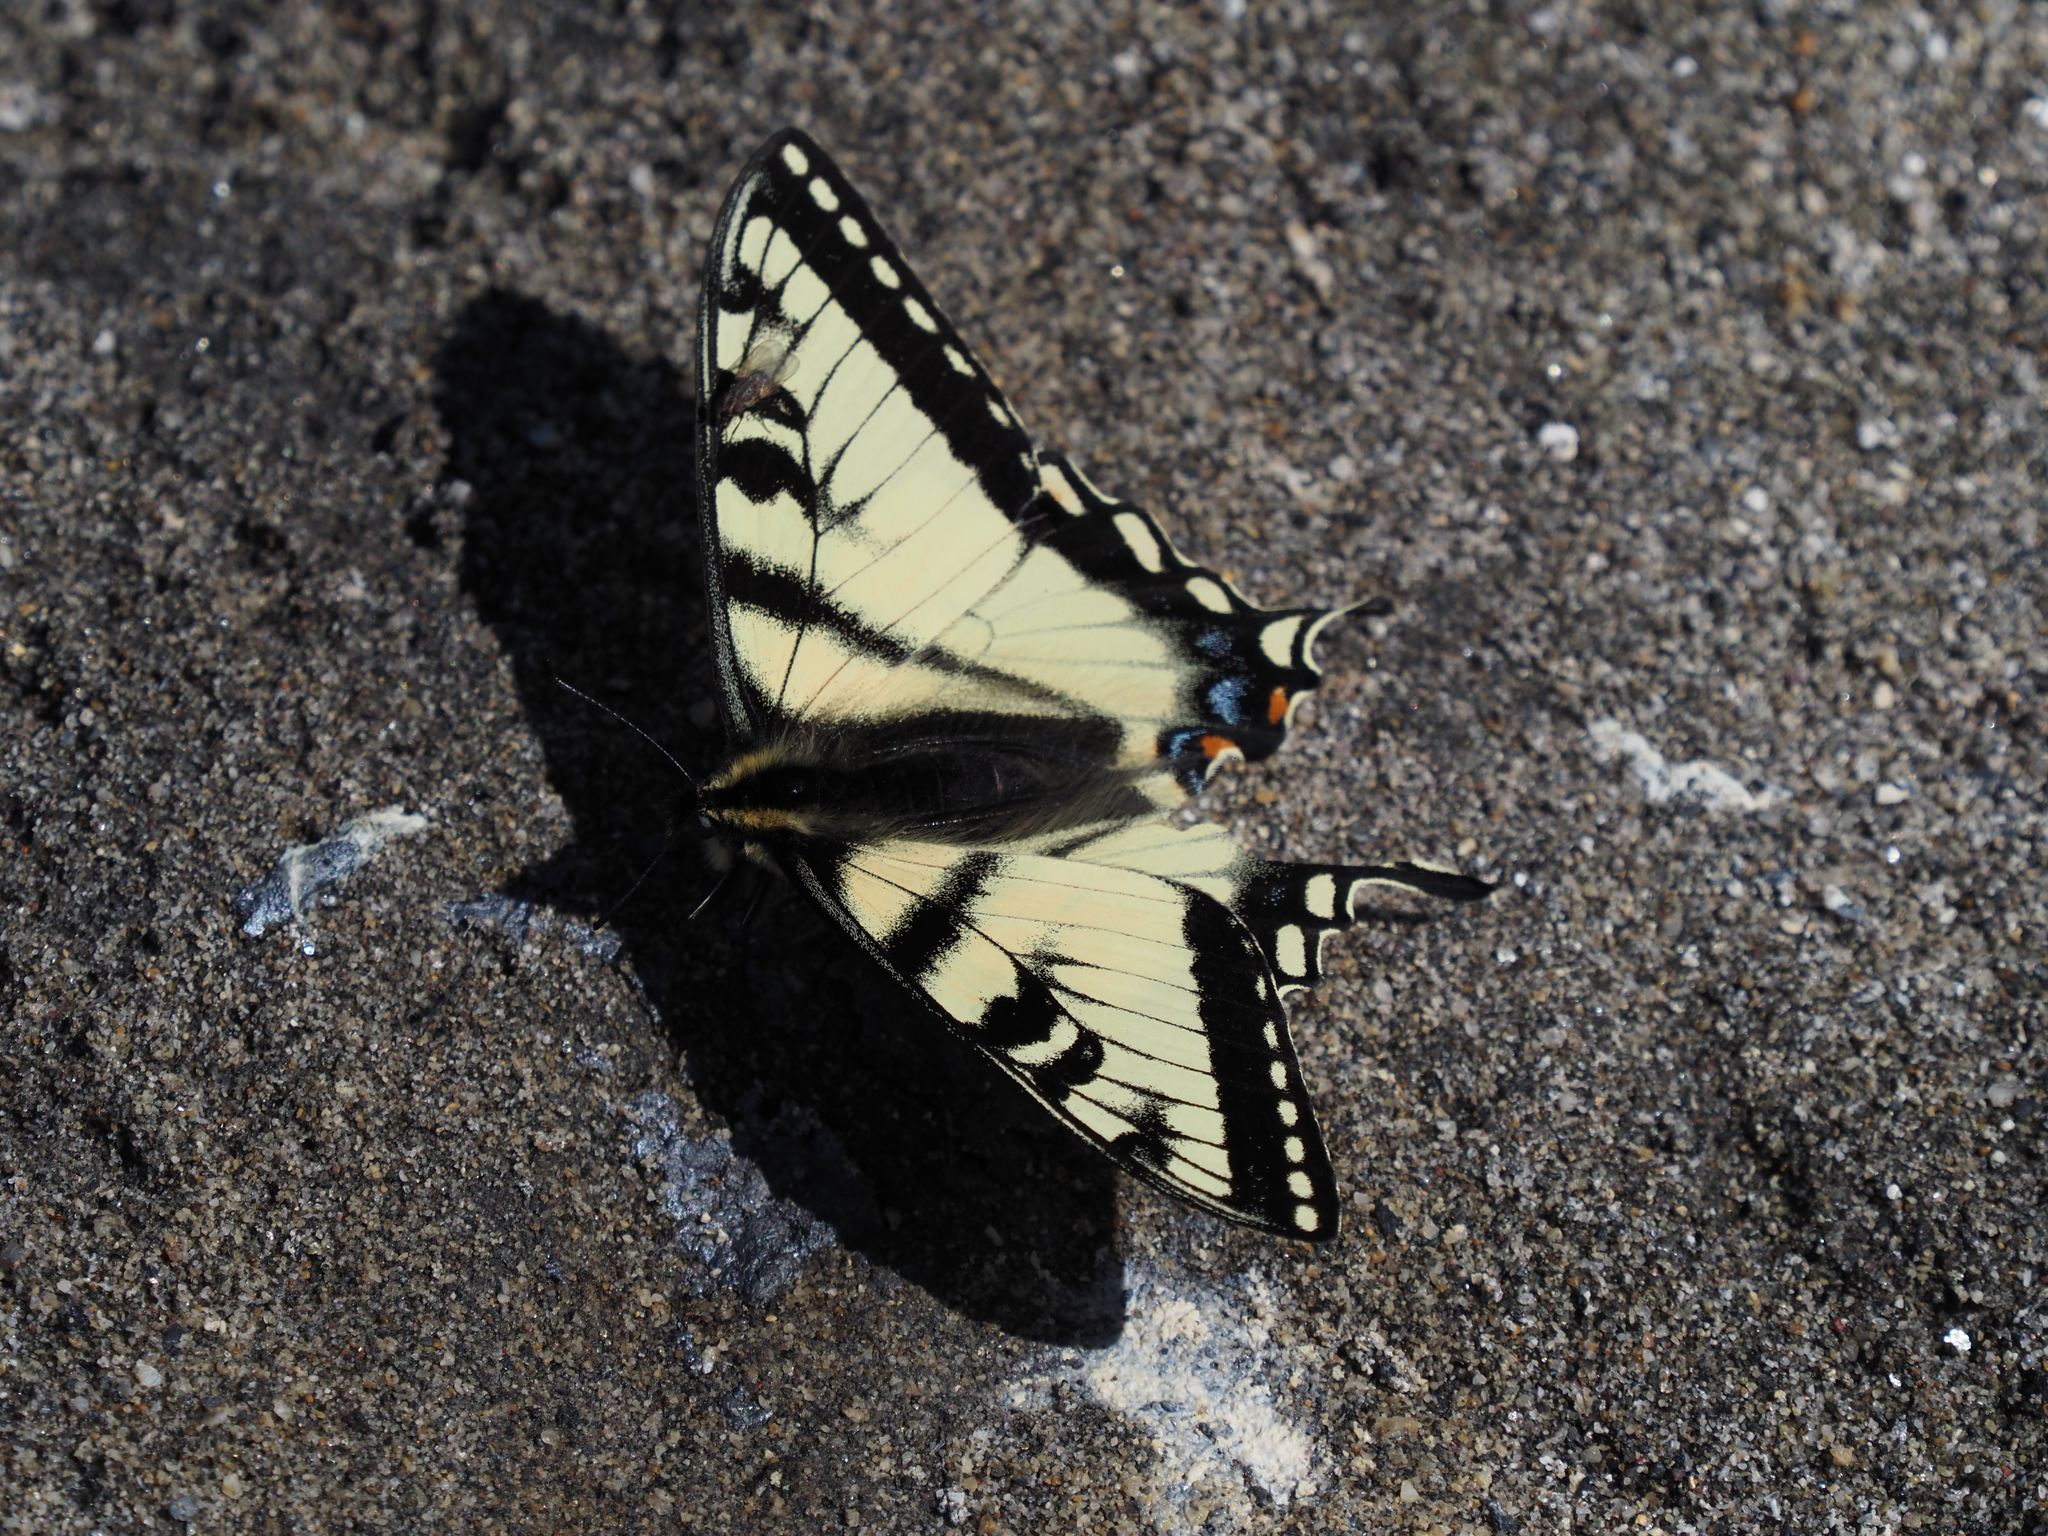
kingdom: Animalia
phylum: Arthropoda
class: Insecta
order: Lepidoptera
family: Papilionidae
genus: Papilio
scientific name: Papilio canadensis
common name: Canadian tiger swallowtail
